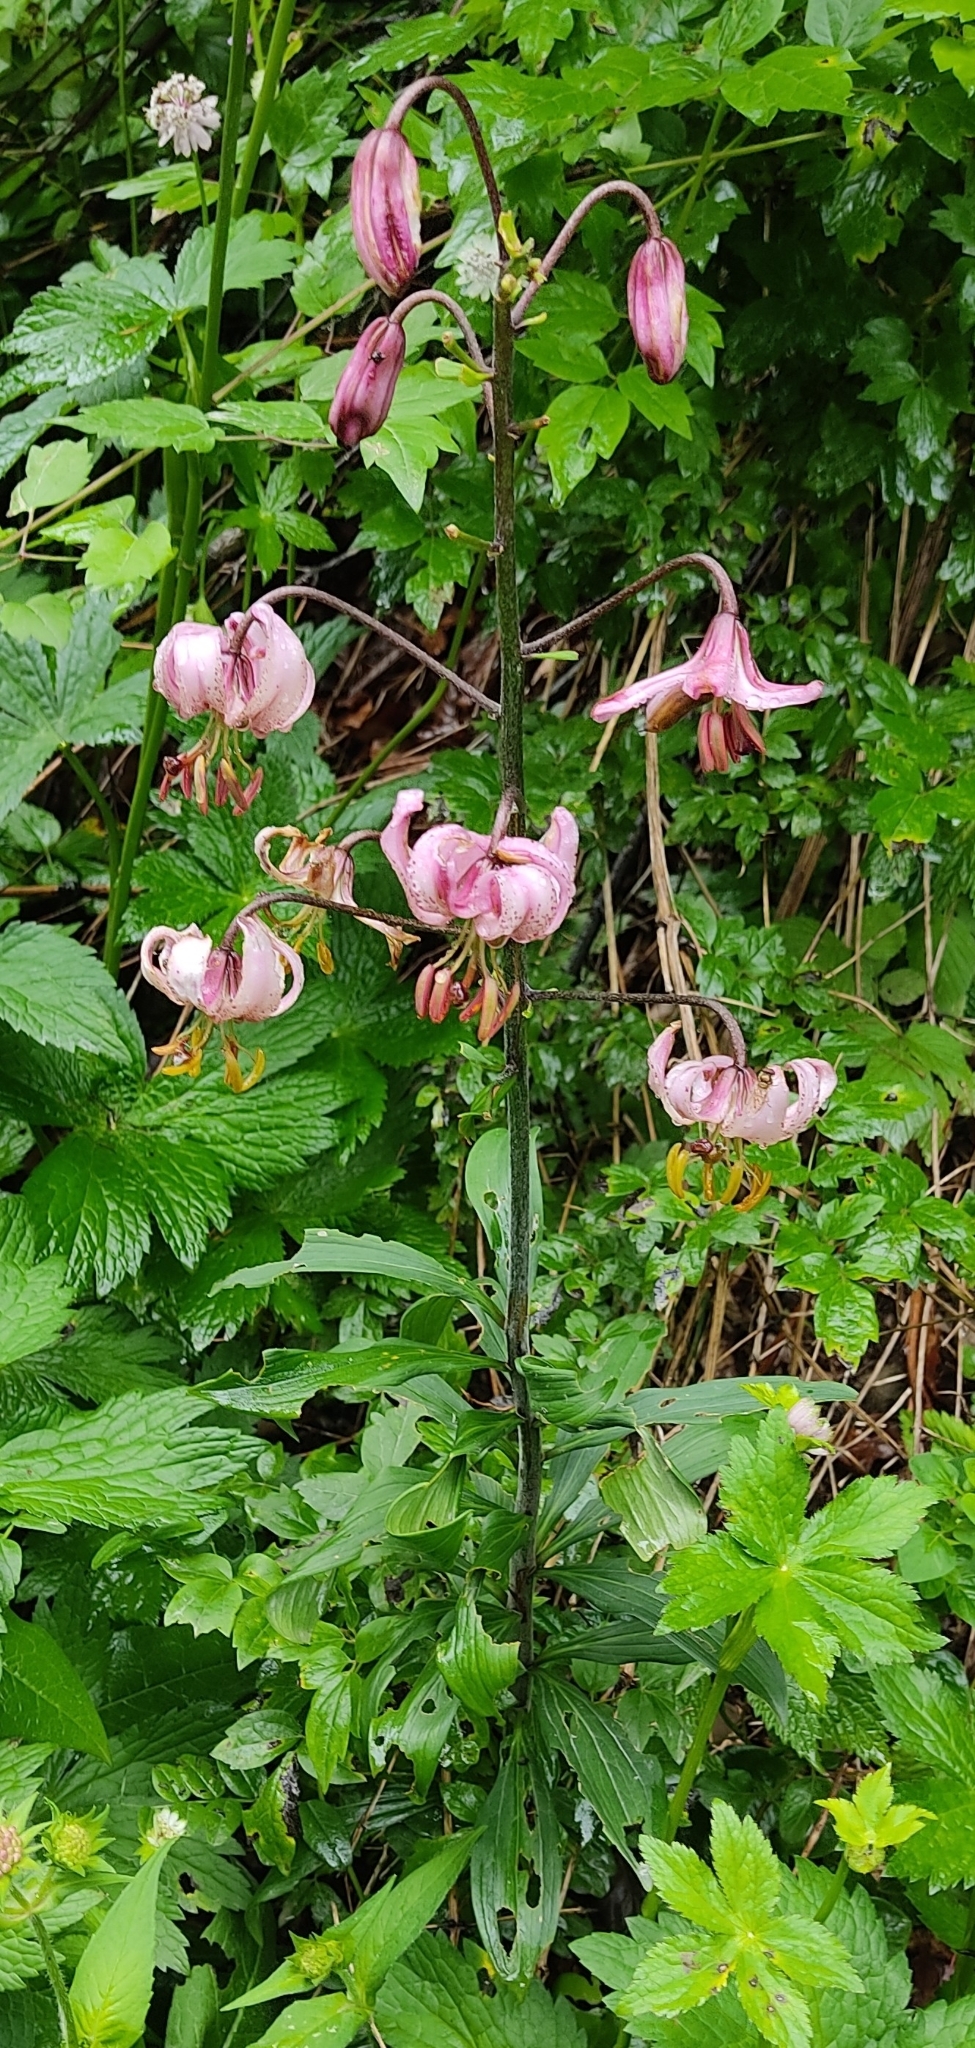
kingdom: Plantae
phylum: Tracheophyta
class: Liliopsida
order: Liliales
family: Liliaceae
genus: Lilium
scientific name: Lilium martagon
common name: Martagon lily
